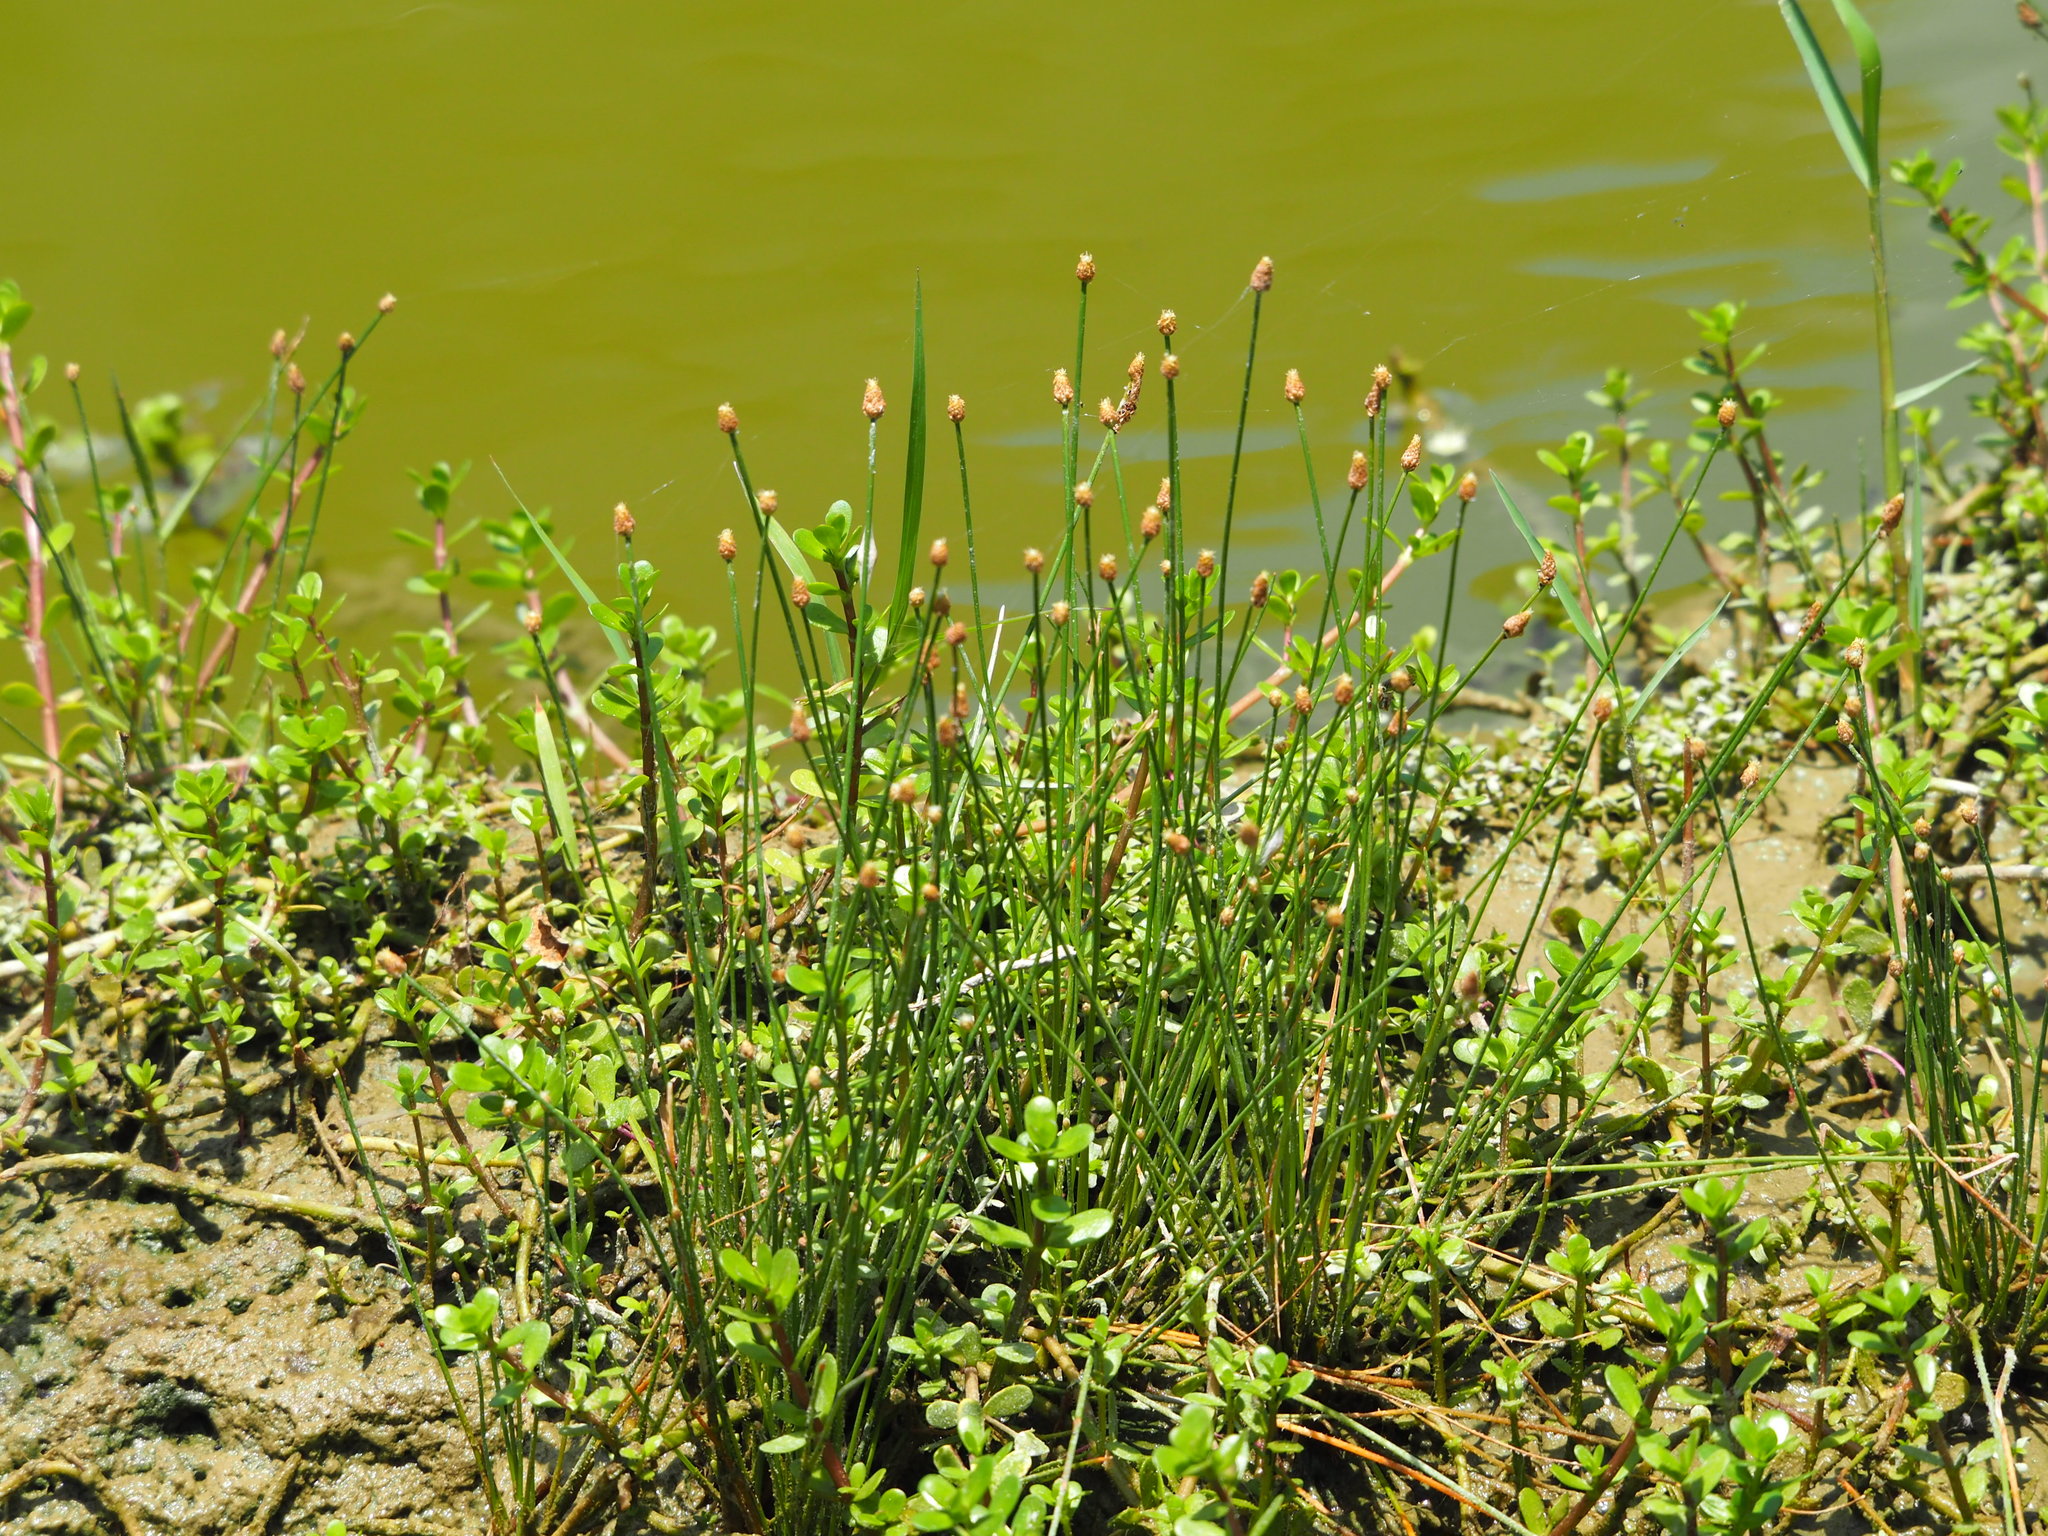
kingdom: Plantae
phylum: Tracheophyta
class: Liliopsida
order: Poales
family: Cyperaceae
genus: Eleocharis
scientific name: Eleocharis geniculata
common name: Canada spikesedge
